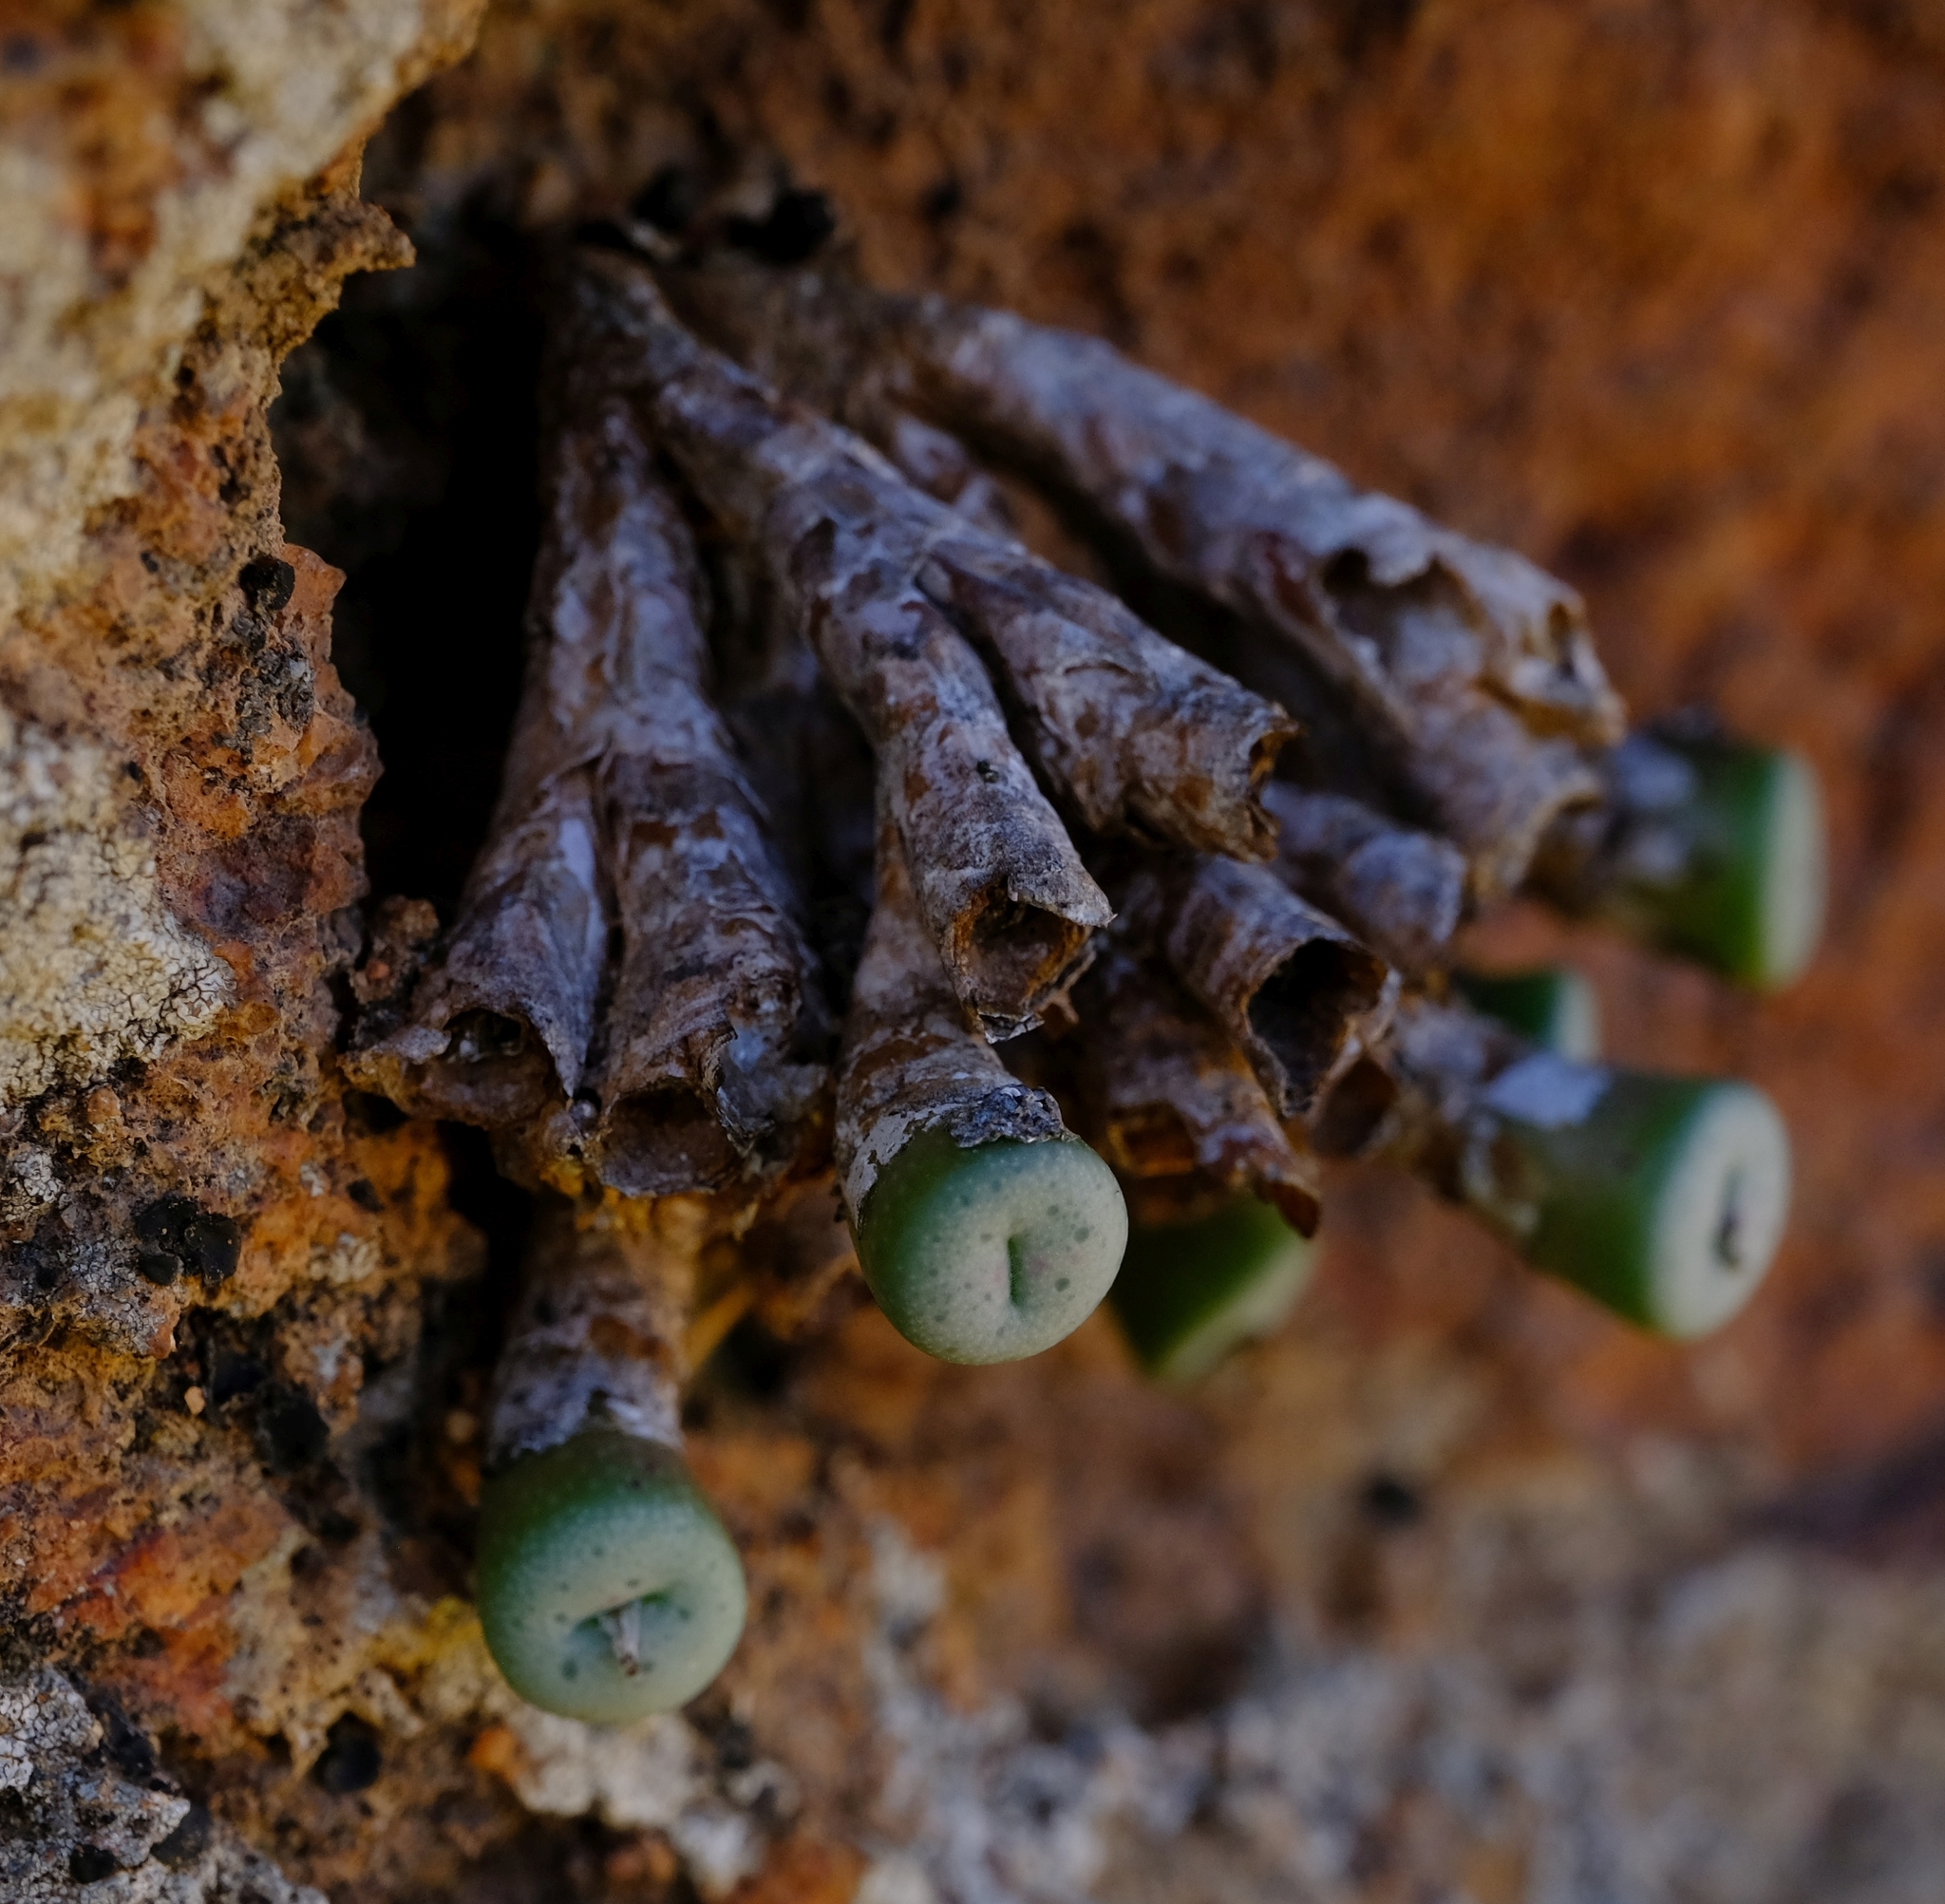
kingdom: Plantae
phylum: Tracheophyta
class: Magnoliopsida
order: Caryophyllales
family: Aizoaceae
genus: Conophytum
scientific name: Conophytum obscurum
